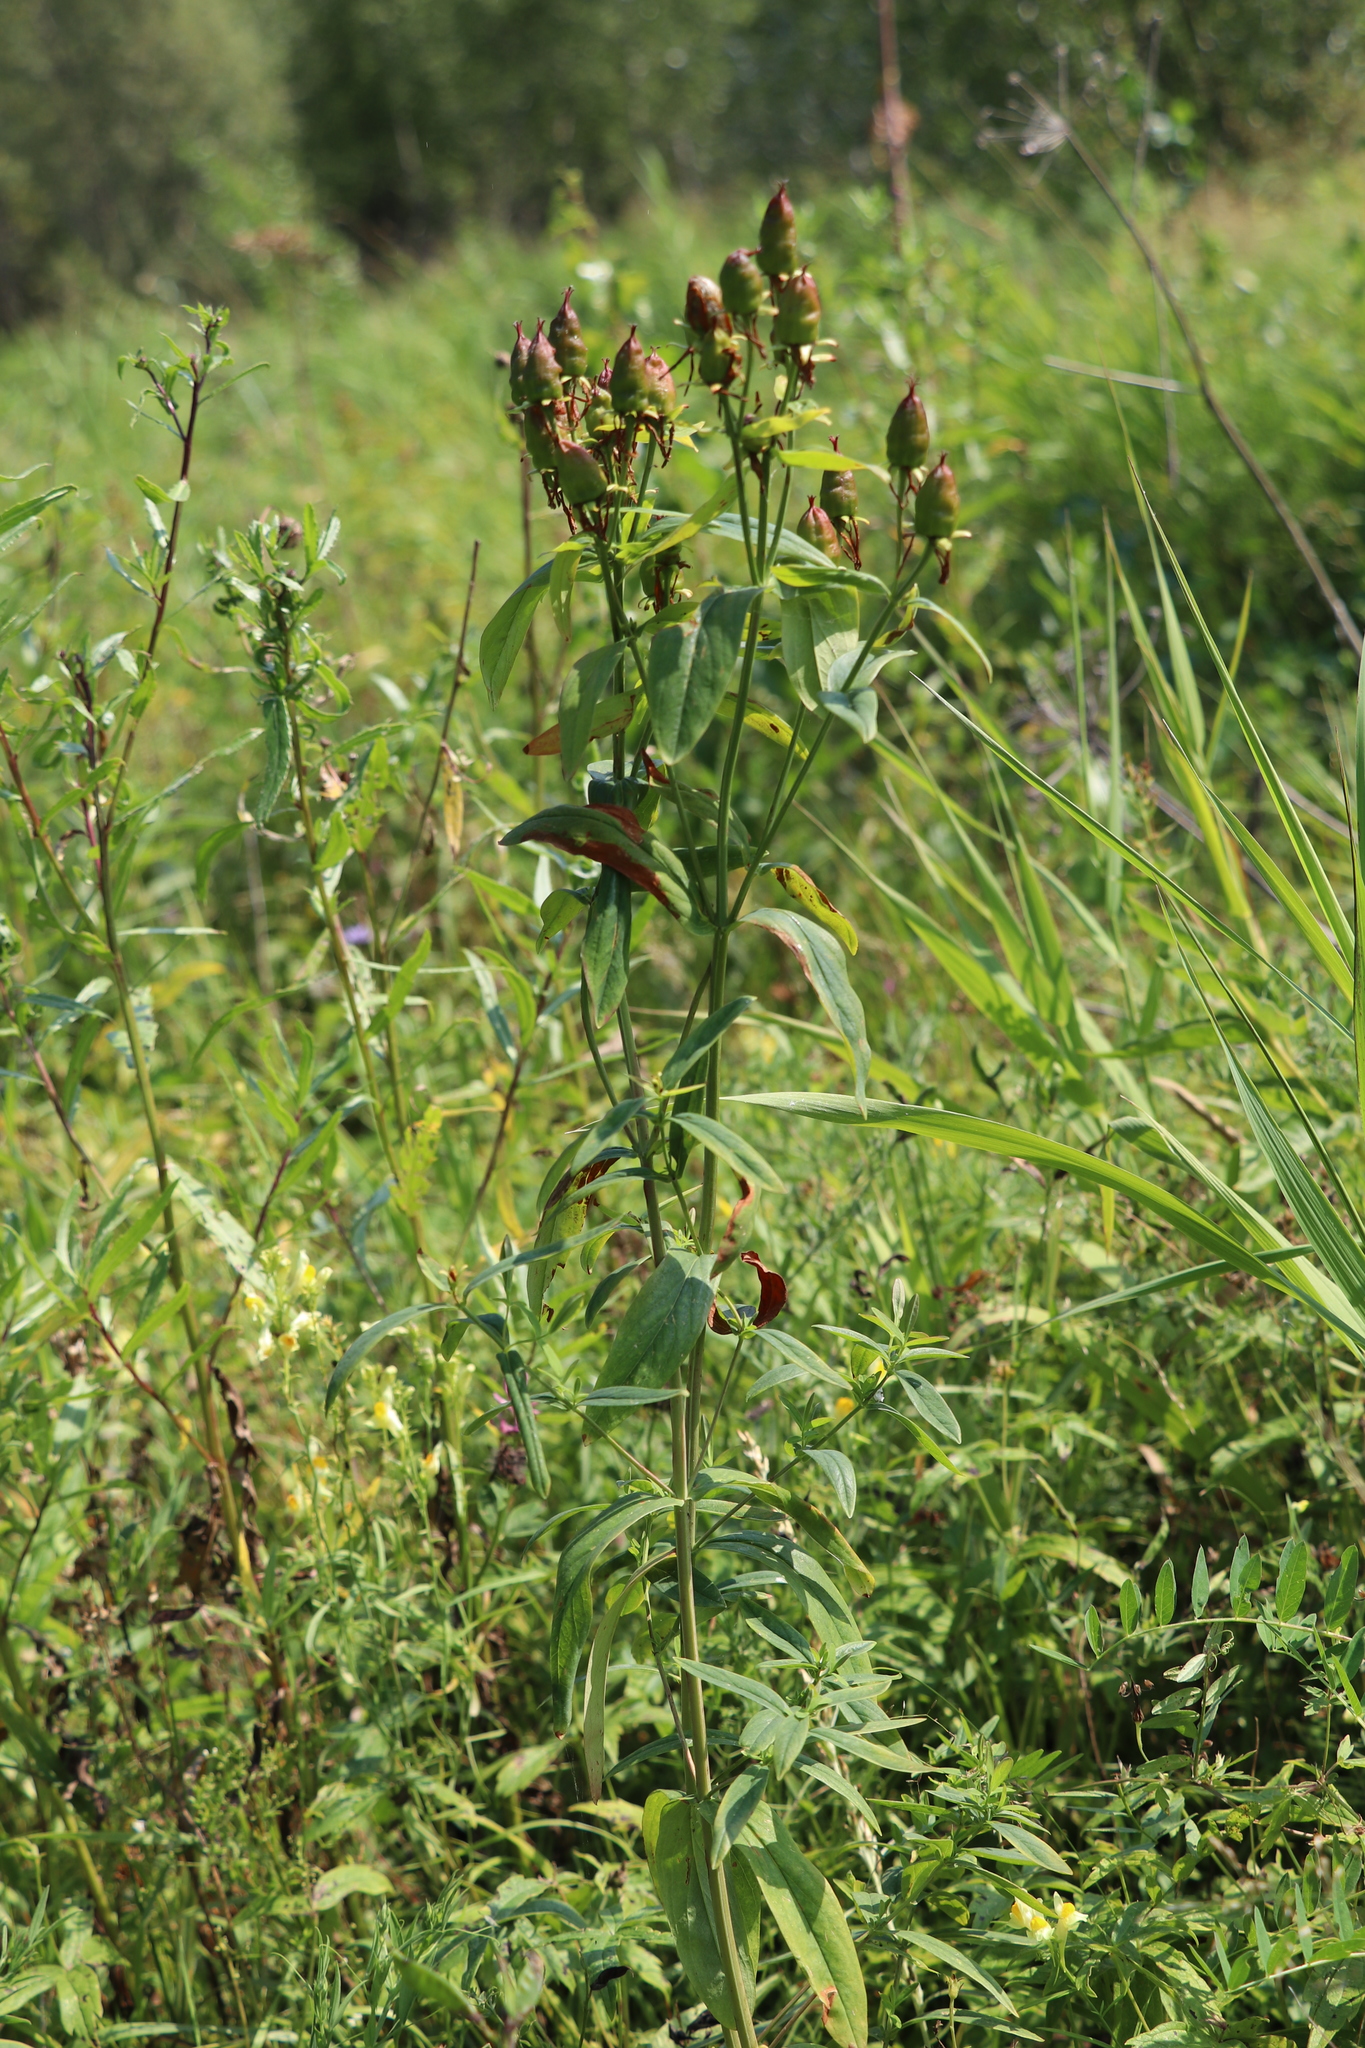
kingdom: Plantae
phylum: Tracheophyta
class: Magnoliopsida
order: Malpighiales
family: Hypericaceae
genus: Hypericum
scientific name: Hypericum ascyron
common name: Giant st. john's-wort
